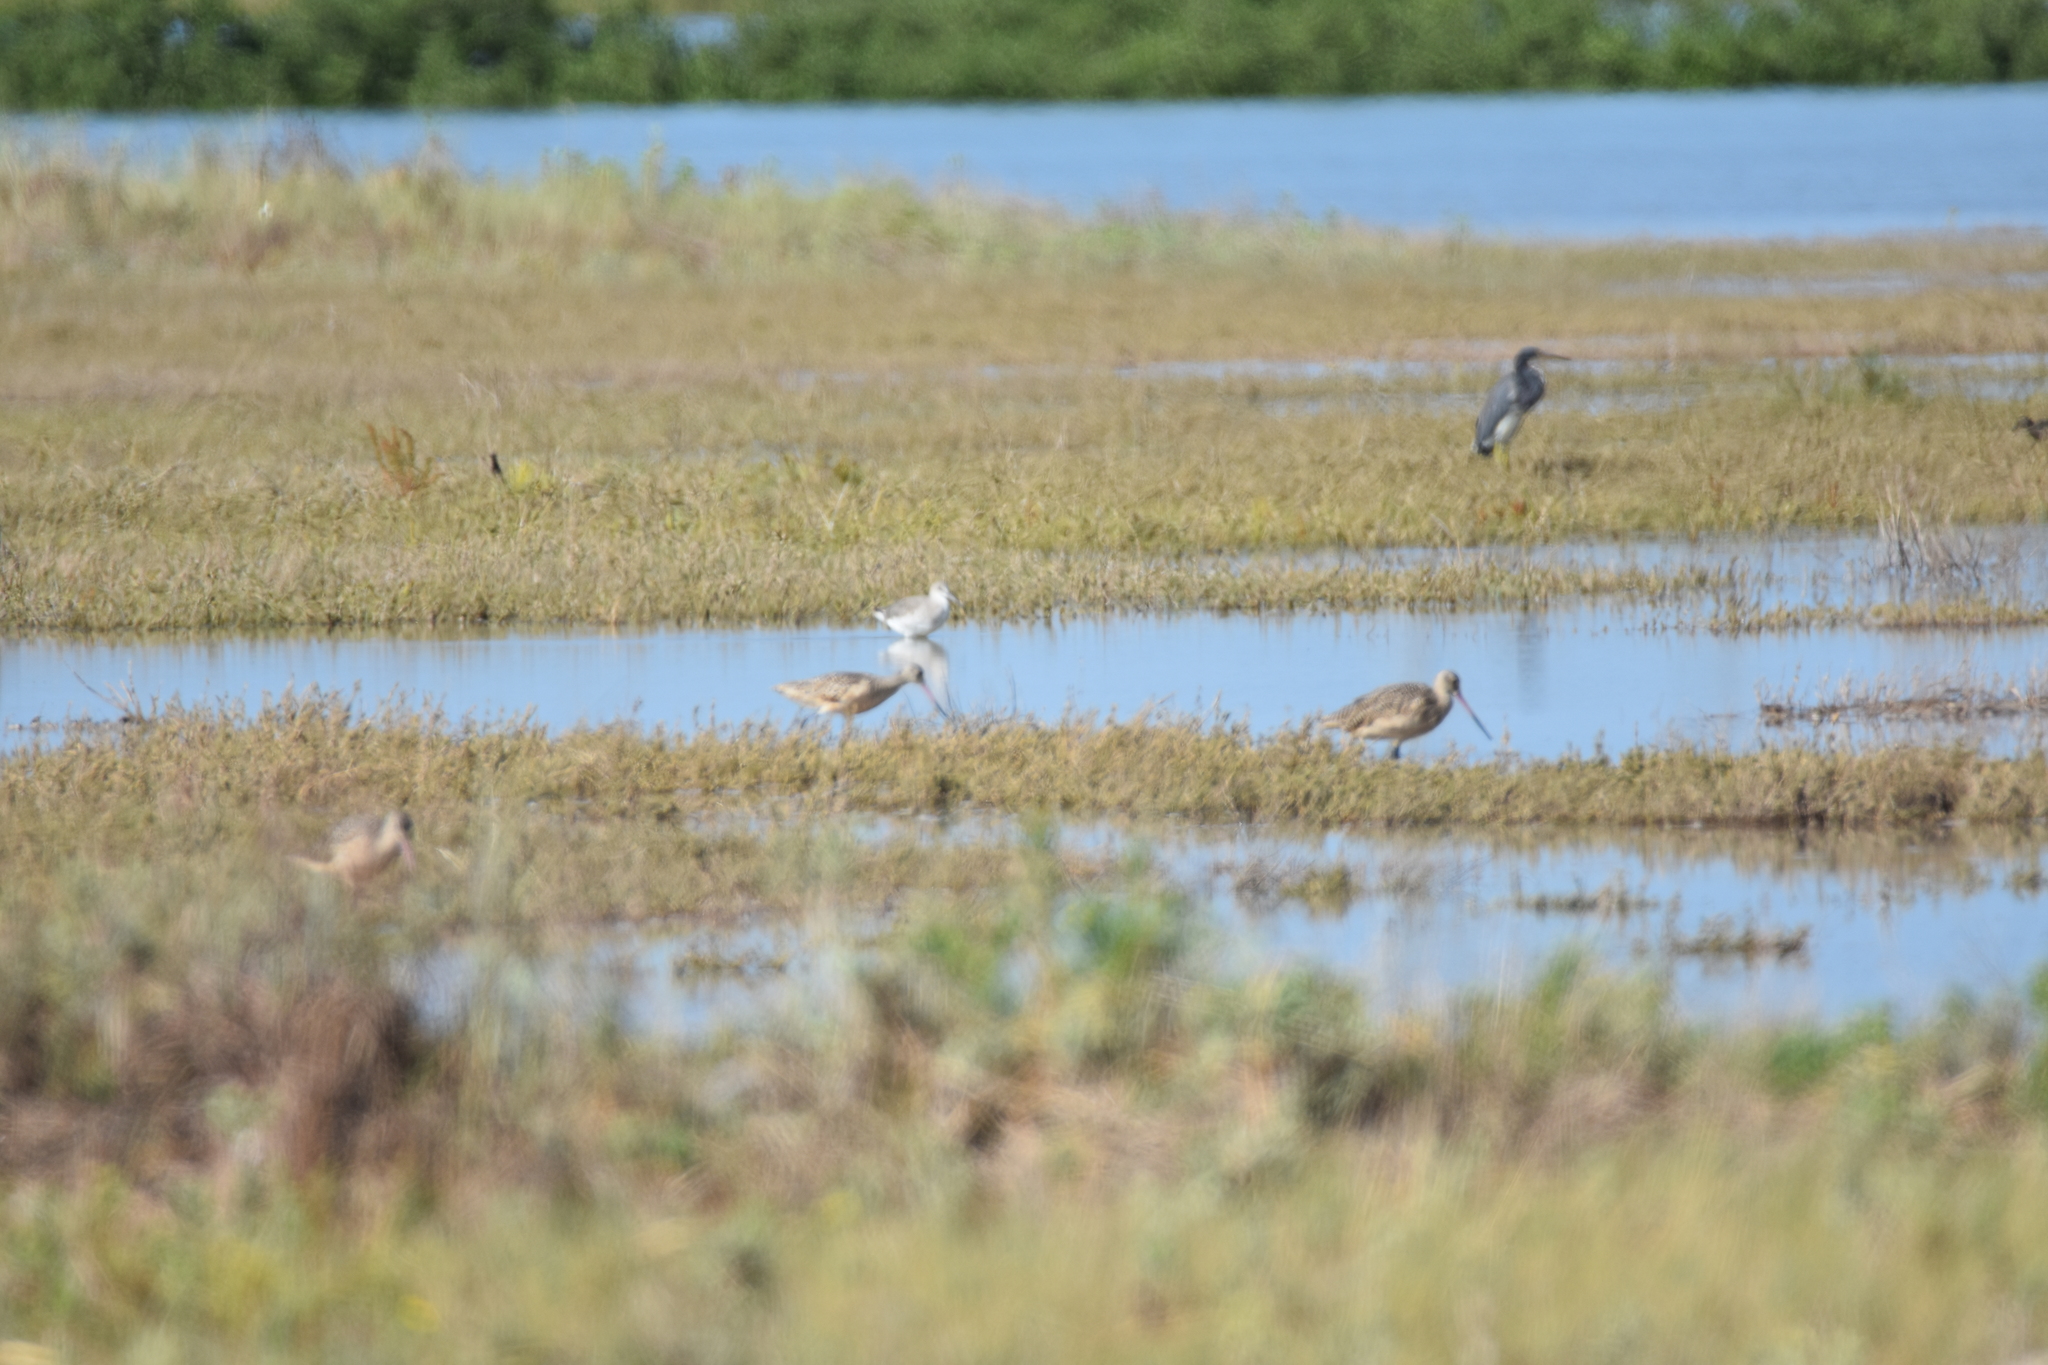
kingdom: Animalia
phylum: Chordata
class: Aves
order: Charadriiformes
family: Scolopacidae
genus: Limosa
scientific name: Limosa fedoa
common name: Marbled godwit
